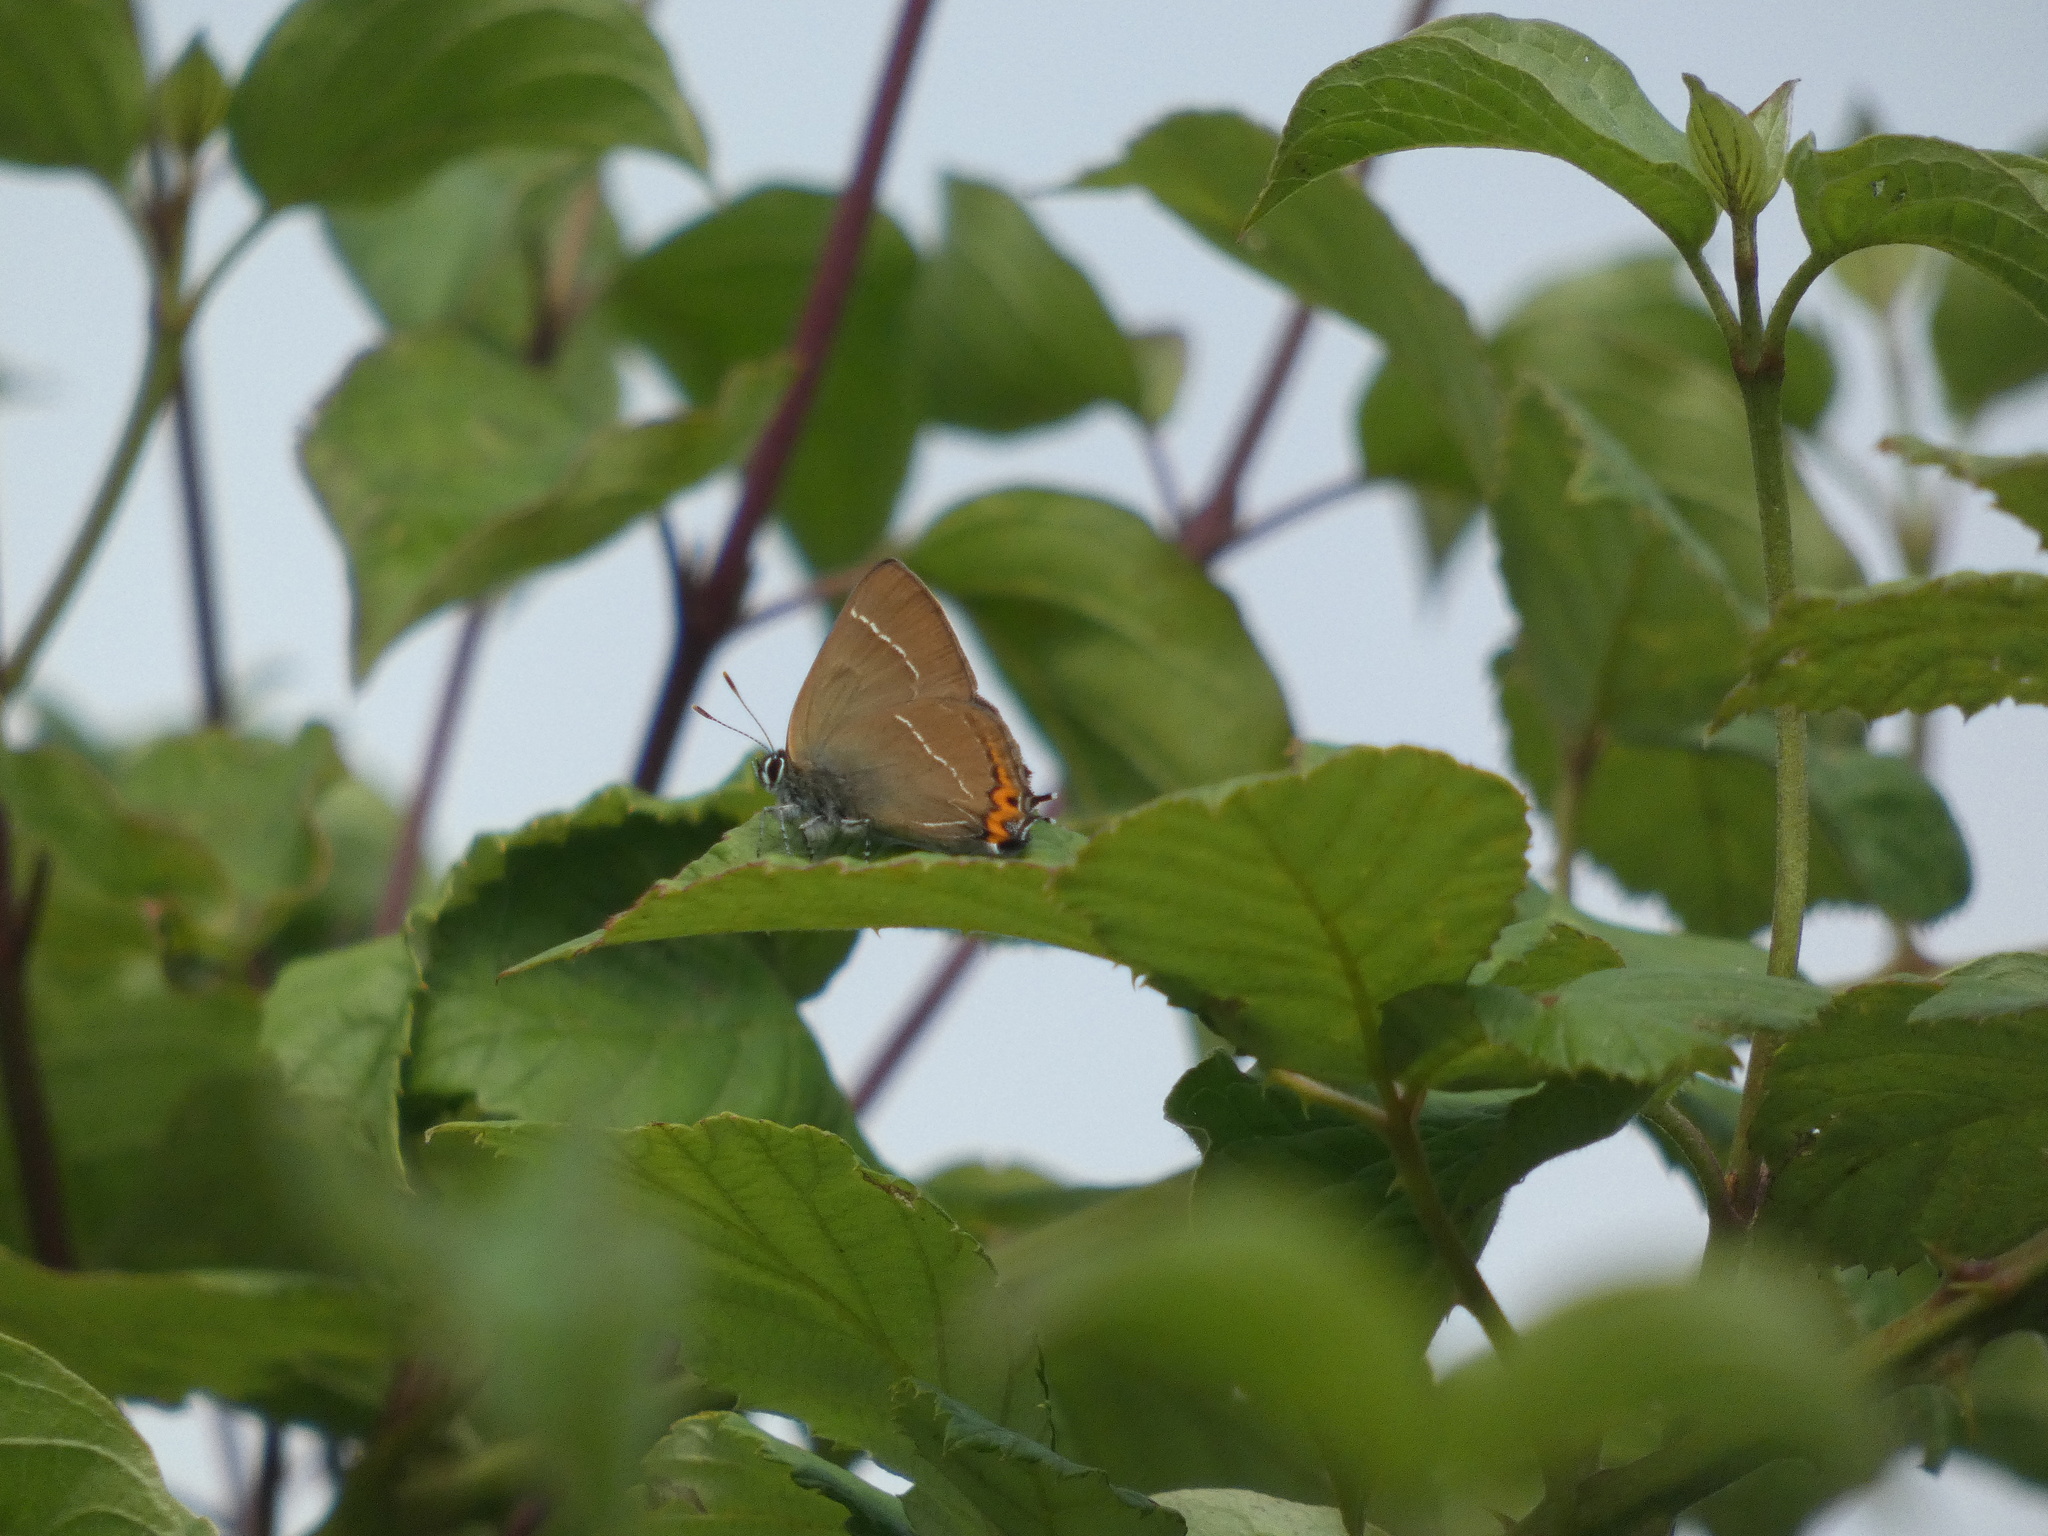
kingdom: Animalia
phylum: Arthropoda
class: Insecta
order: Lepidoptera
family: Lycaenidae
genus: Satyrium
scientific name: Satyrium w-album
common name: White-letter hairstreak
